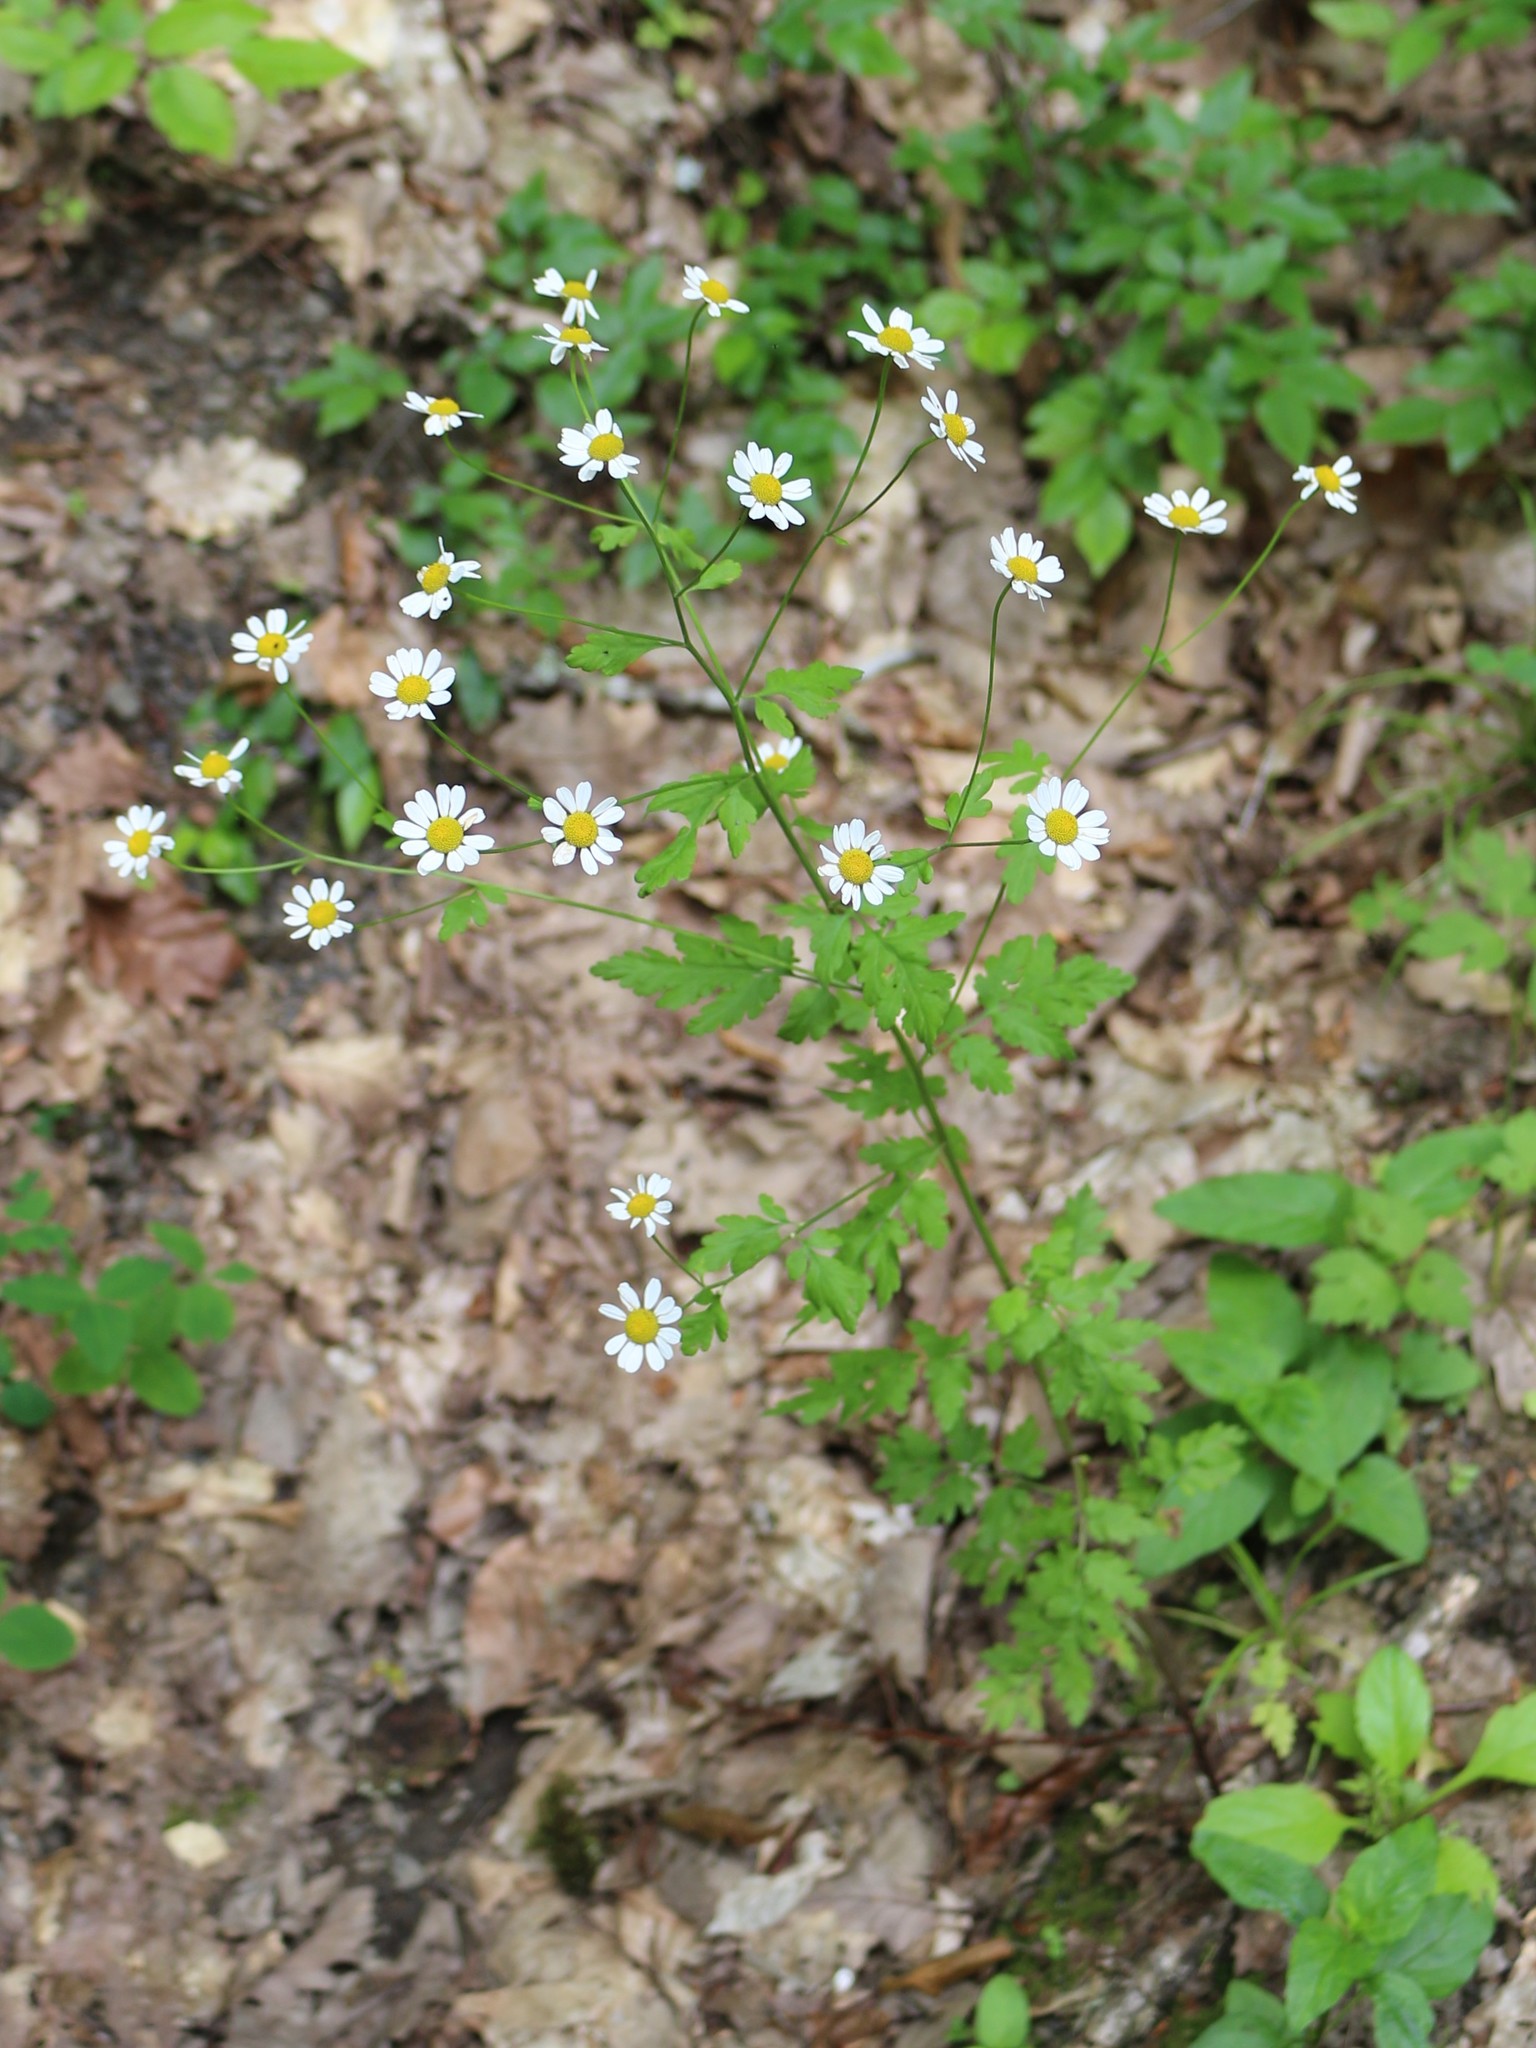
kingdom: Plantae
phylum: Tracheophyta
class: Magnoliopsida
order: Asterales
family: Asteraceae
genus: Tanacetum
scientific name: Tanacetum partheniifolium
